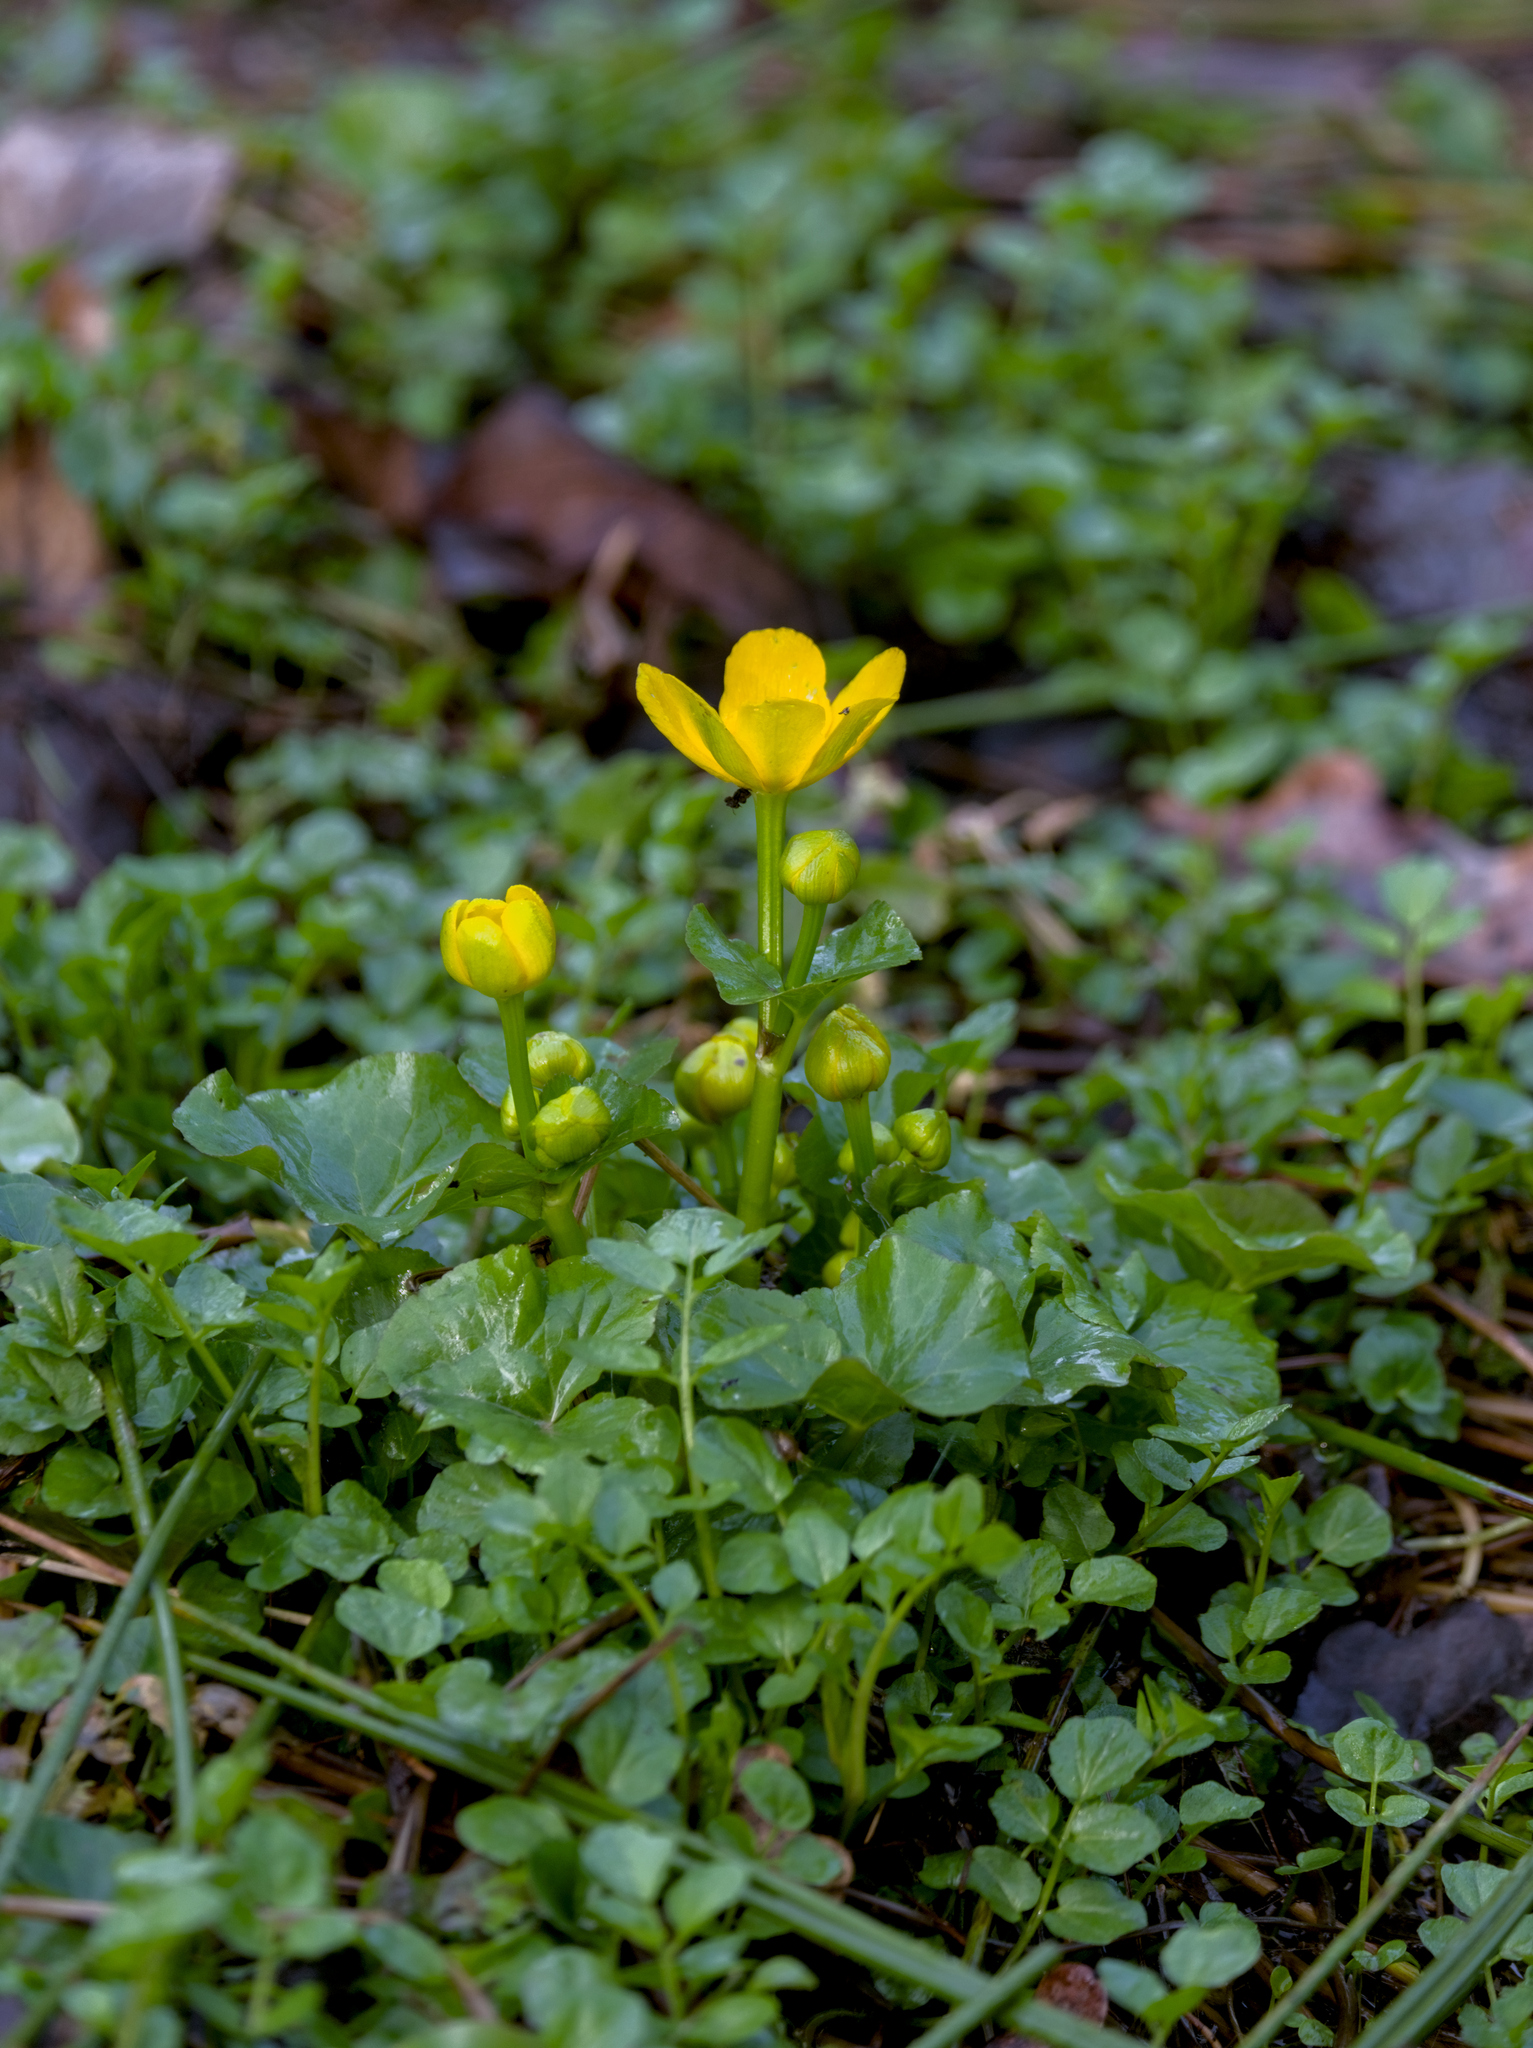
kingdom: Plantae
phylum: Tracheophyta
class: Magnoliopsida
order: Ranunculales
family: Ranunculaceae
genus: Caltha
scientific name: Caltha palustris
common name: Marsh marigold
